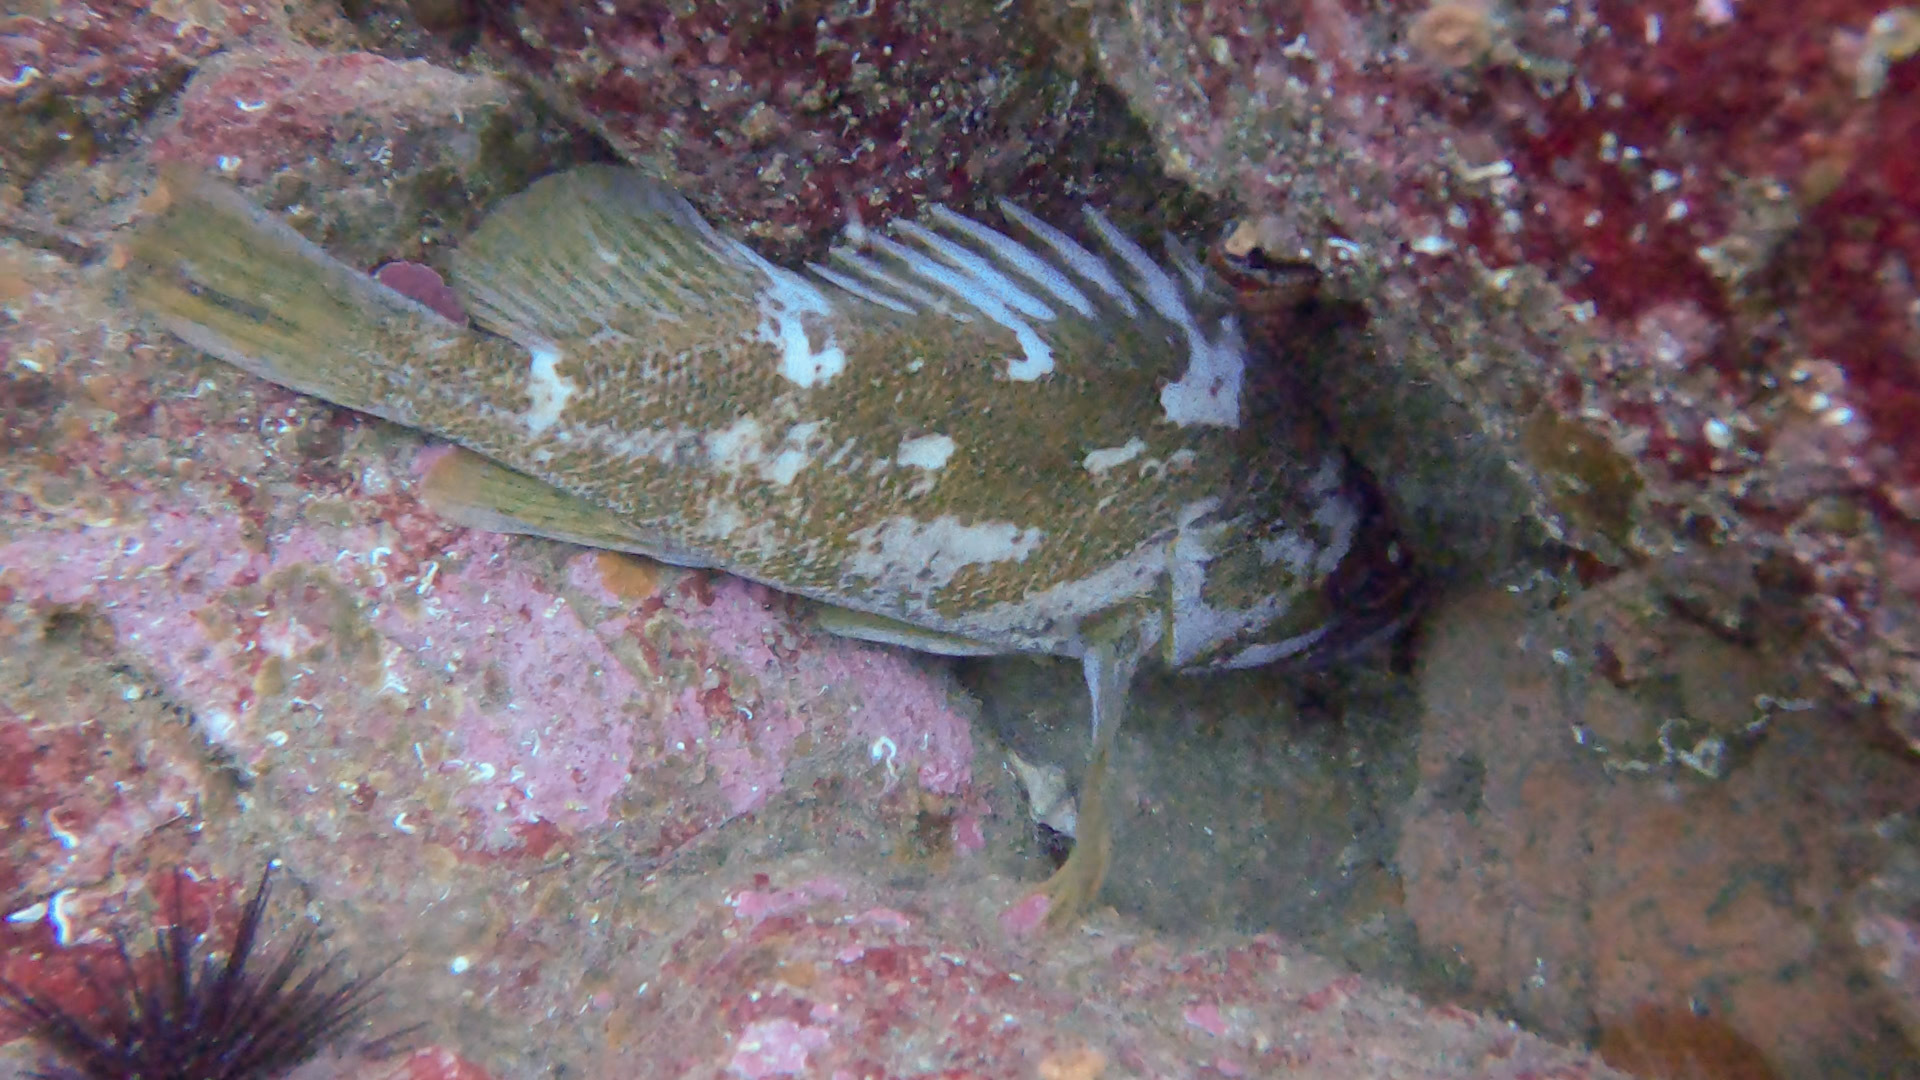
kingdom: Animalia
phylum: Chordata
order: Scorpaeniformes
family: Sebastidae
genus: Sebastes
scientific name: Sebastes carnatus
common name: Gopher rockfish
